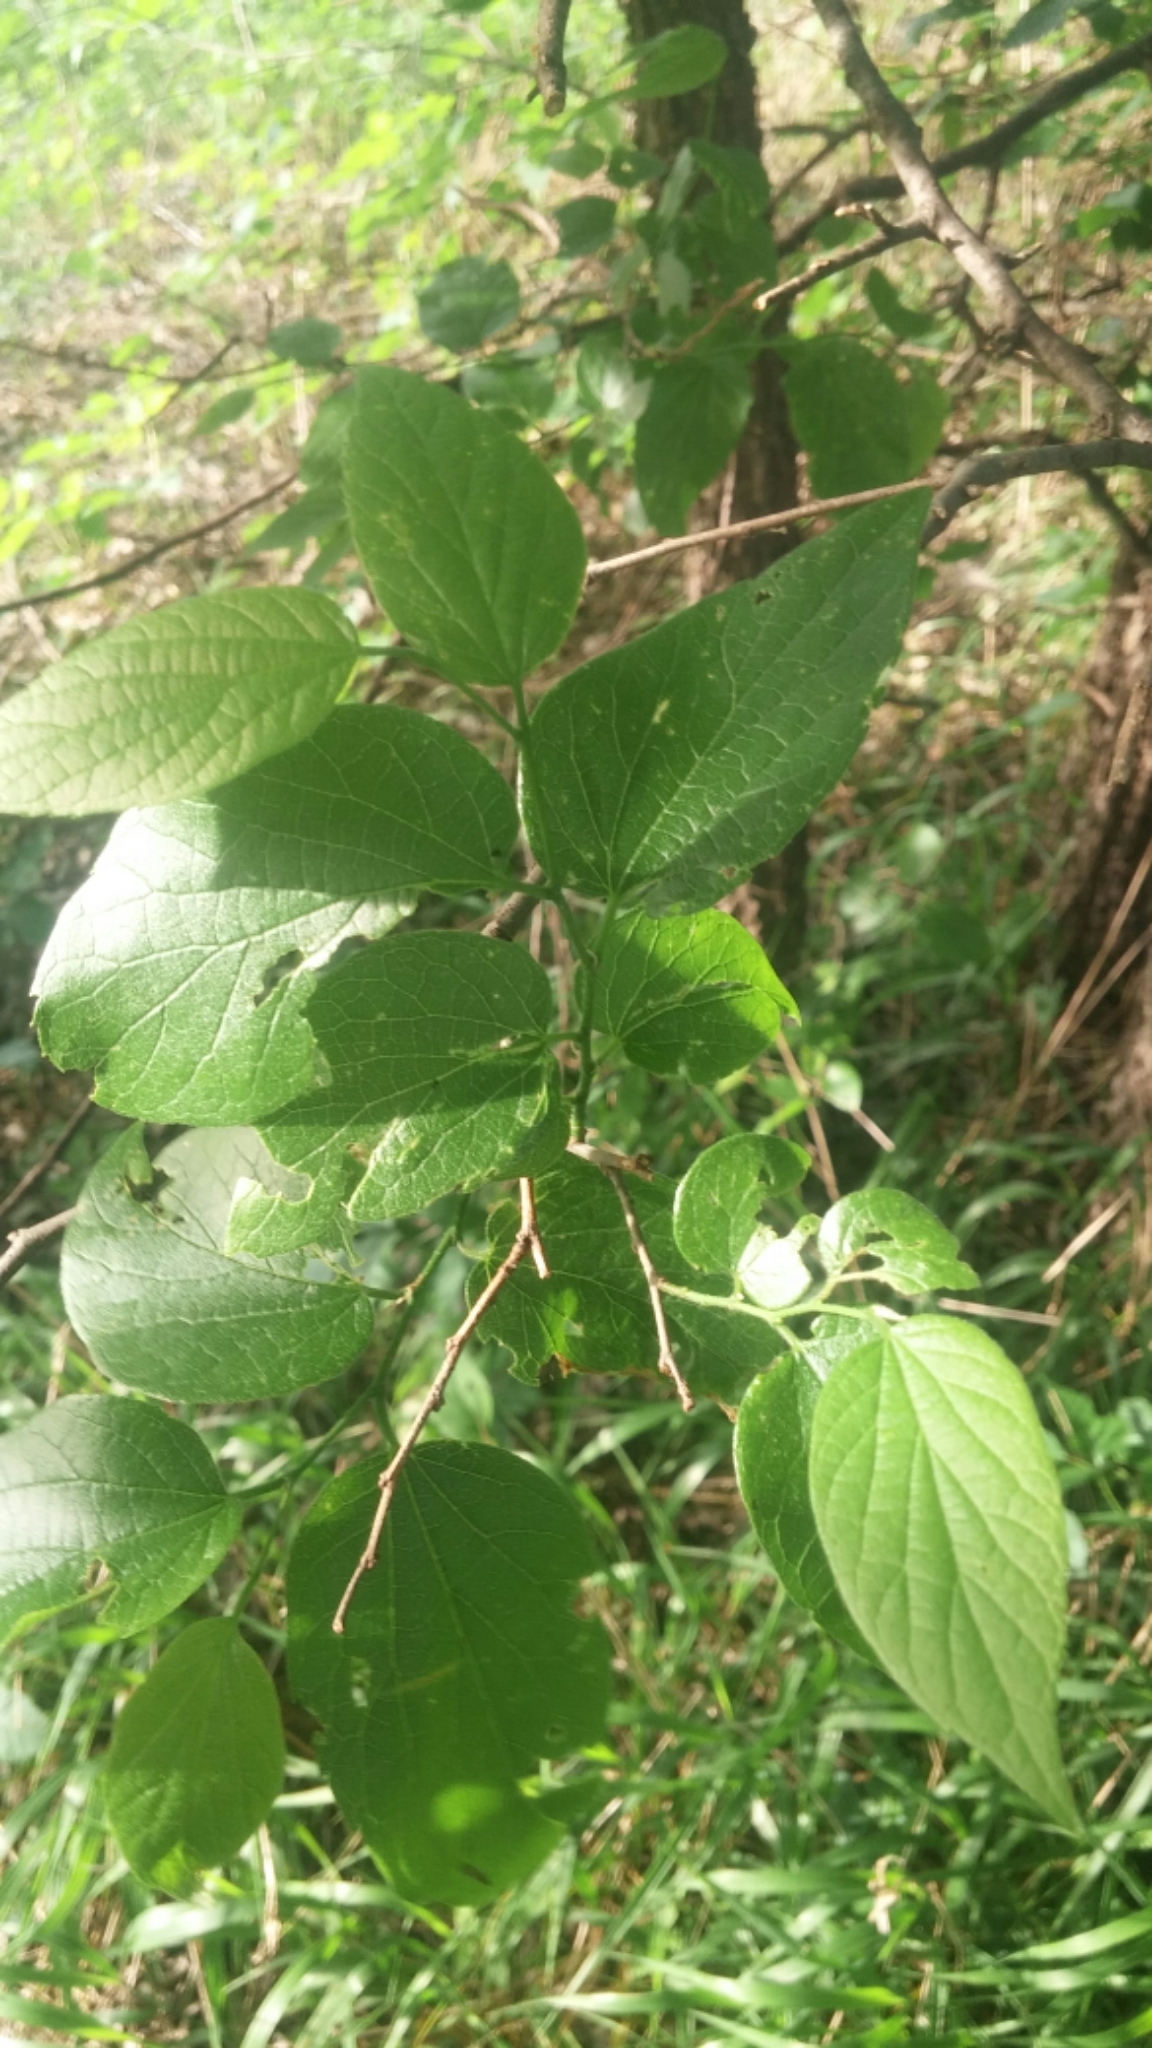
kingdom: Plantae
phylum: Tracheophyta
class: Magnoliopsida
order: Rosales
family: Cannabaceae
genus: Celtis
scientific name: Celtis laevigata
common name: Sugarberry
